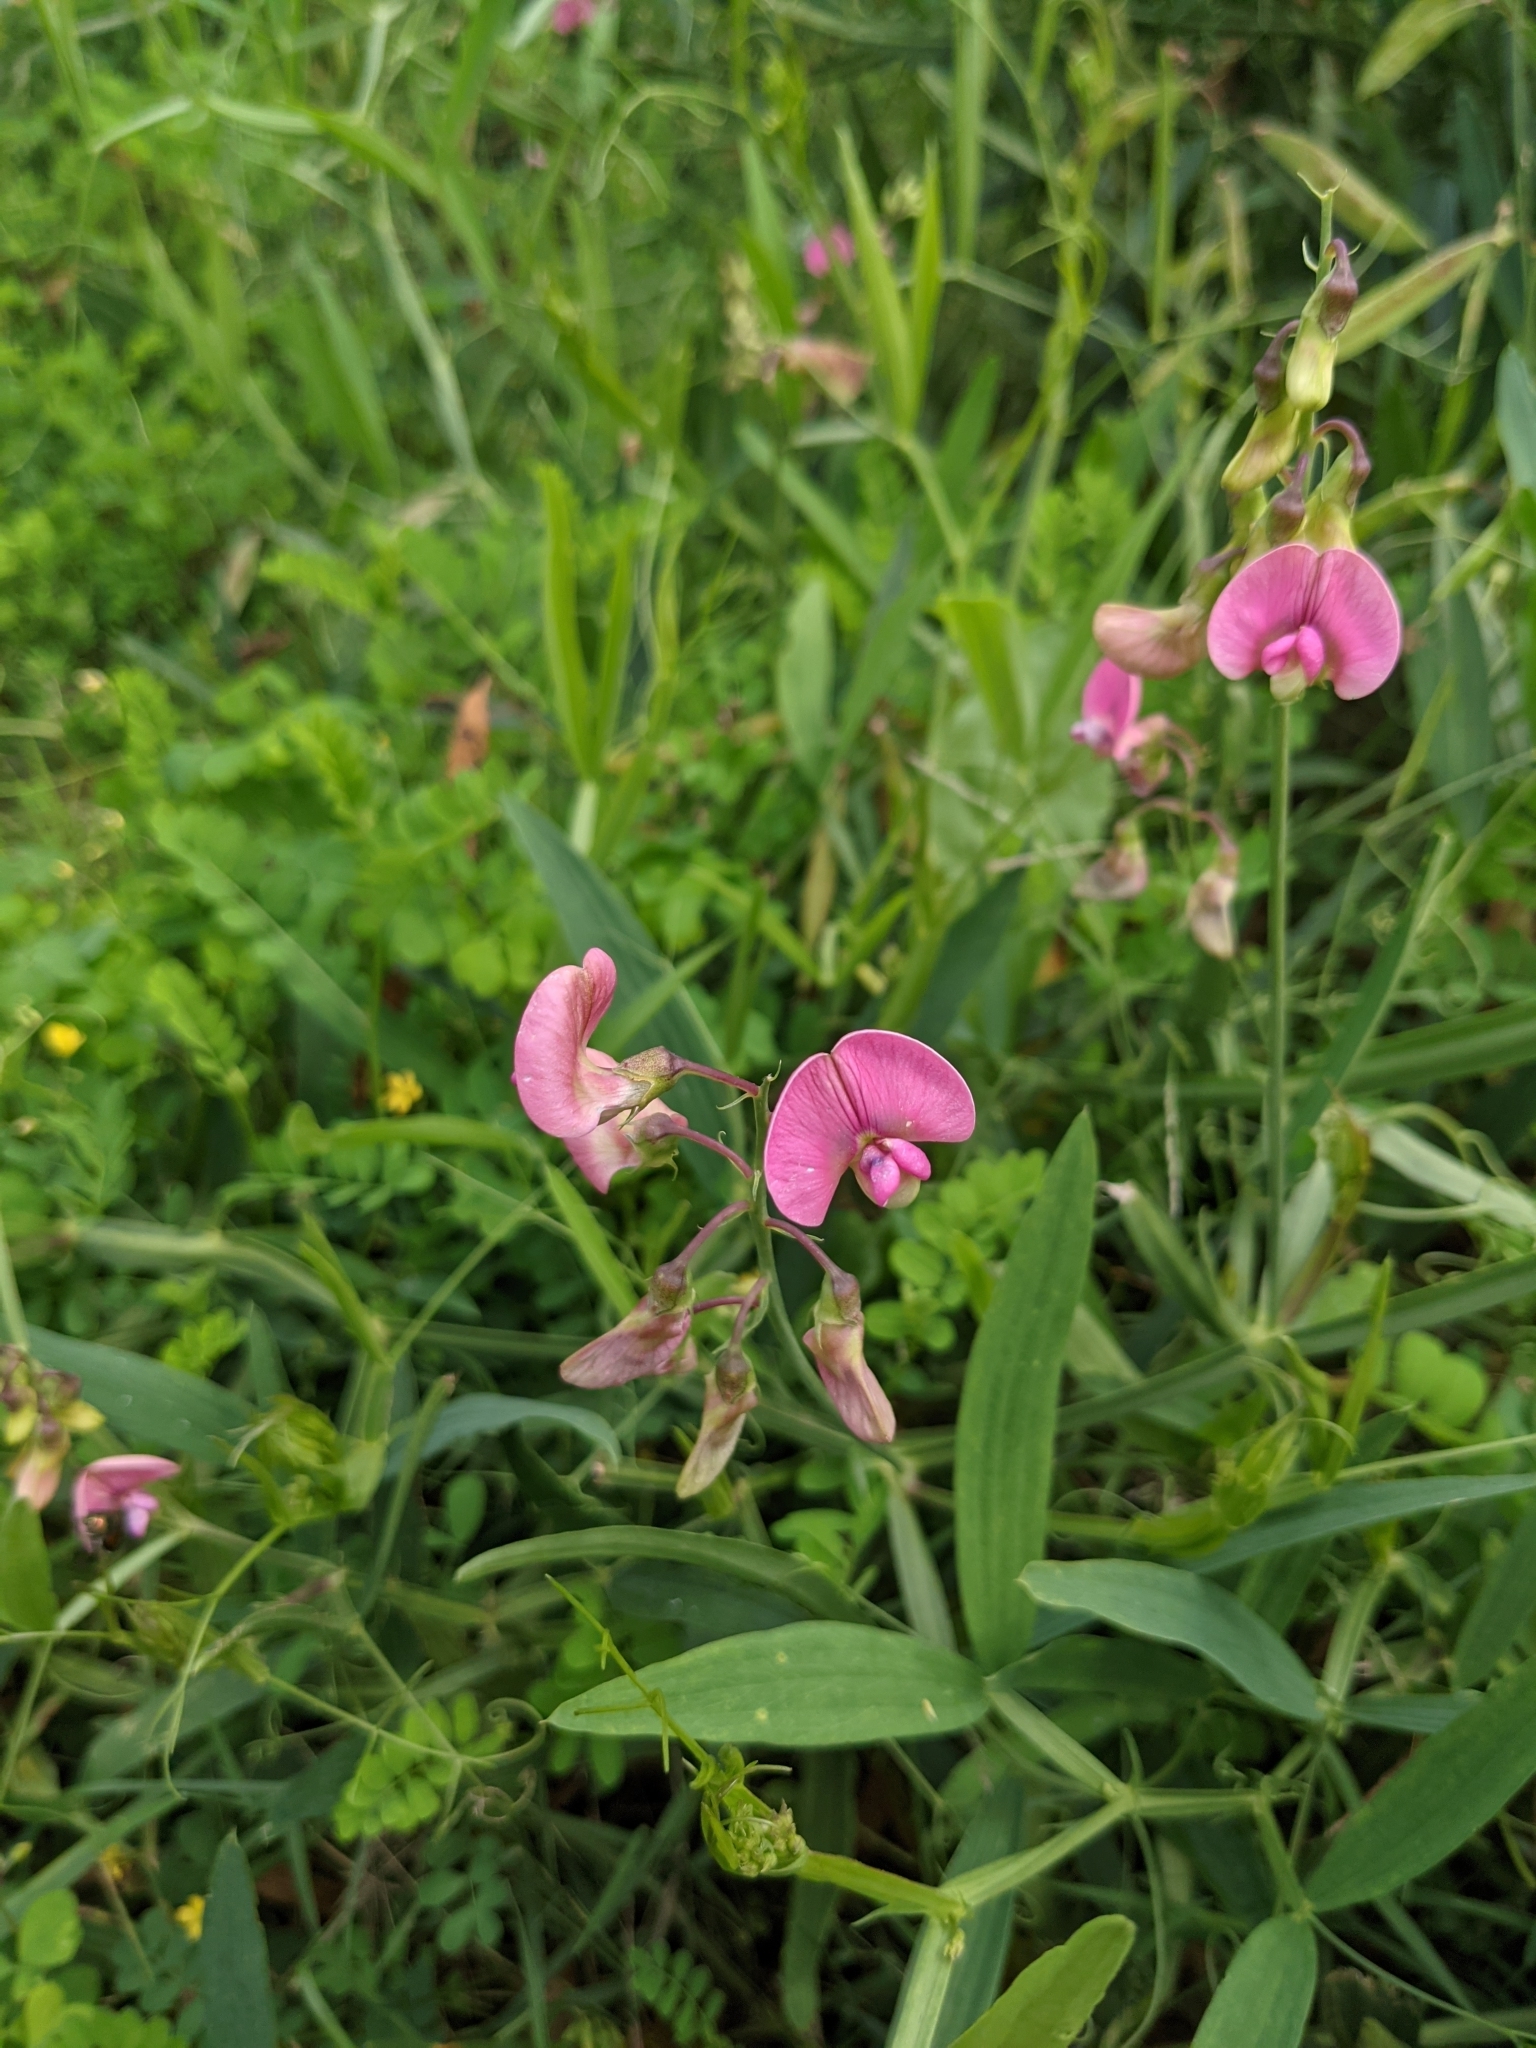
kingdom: Plantae
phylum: Tracheophyta
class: Magnoliopsida
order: Fabales
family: Fabaceae
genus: Lathyrus
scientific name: Lathyrus sylvestris
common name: Flat pea
